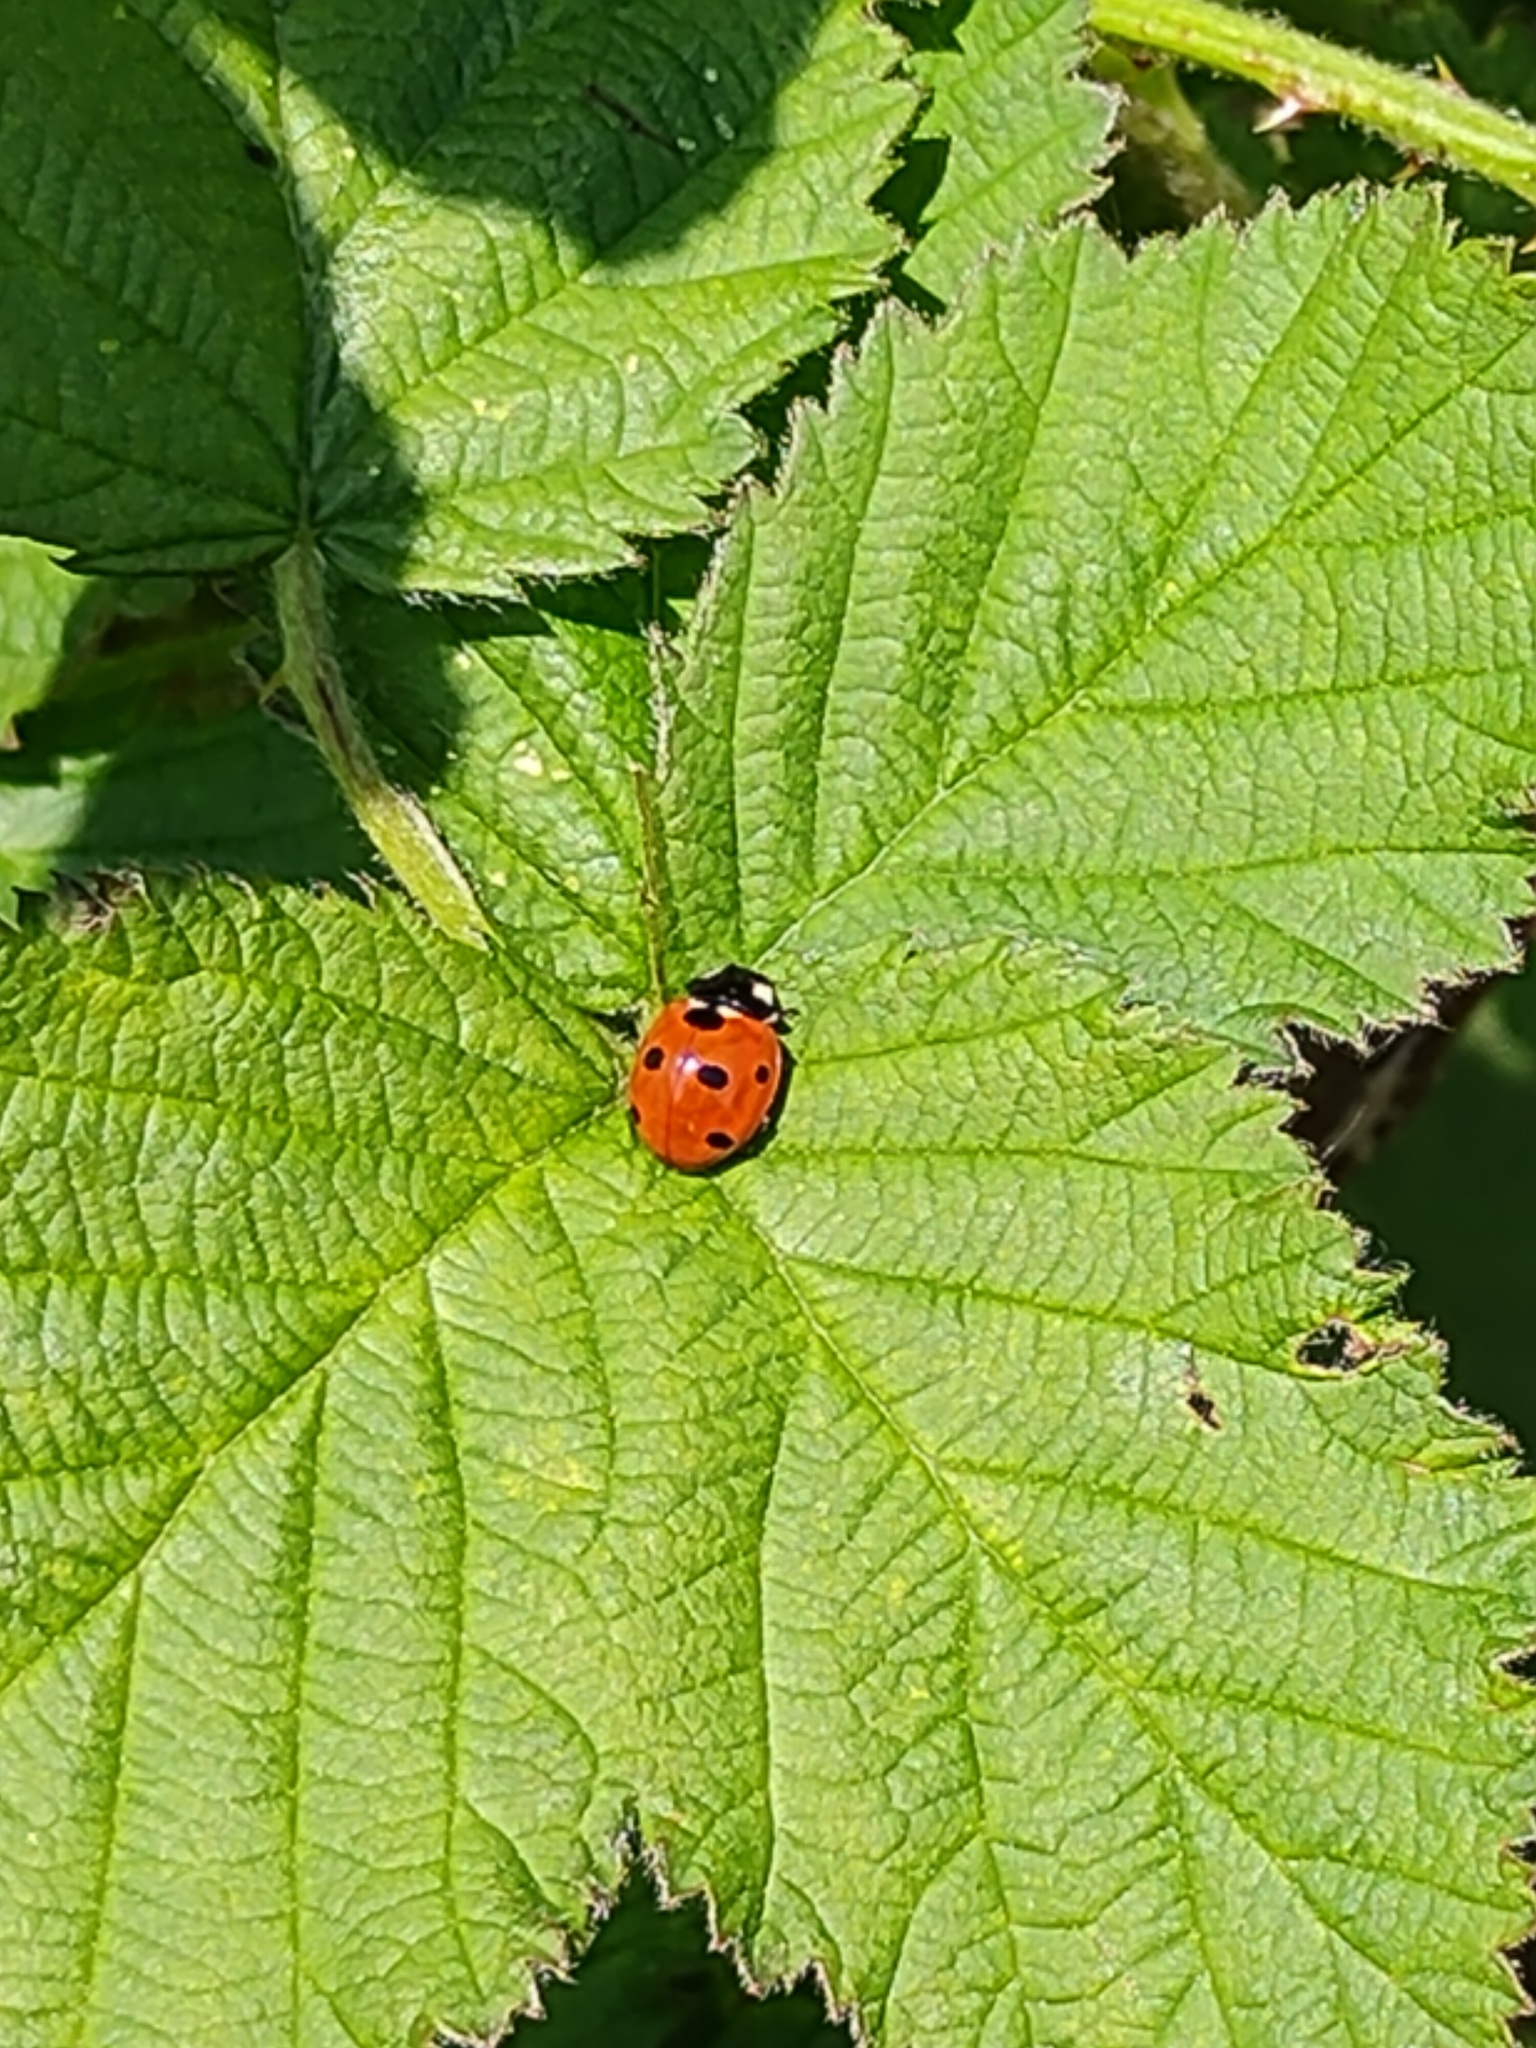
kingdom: Animalia
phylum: Arthropoda
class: Insecta
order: Coleoptera
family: Coccinellidae
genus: Coccinella
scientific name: Coccinella septempunctata
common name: Sevenspotted lady beetle
